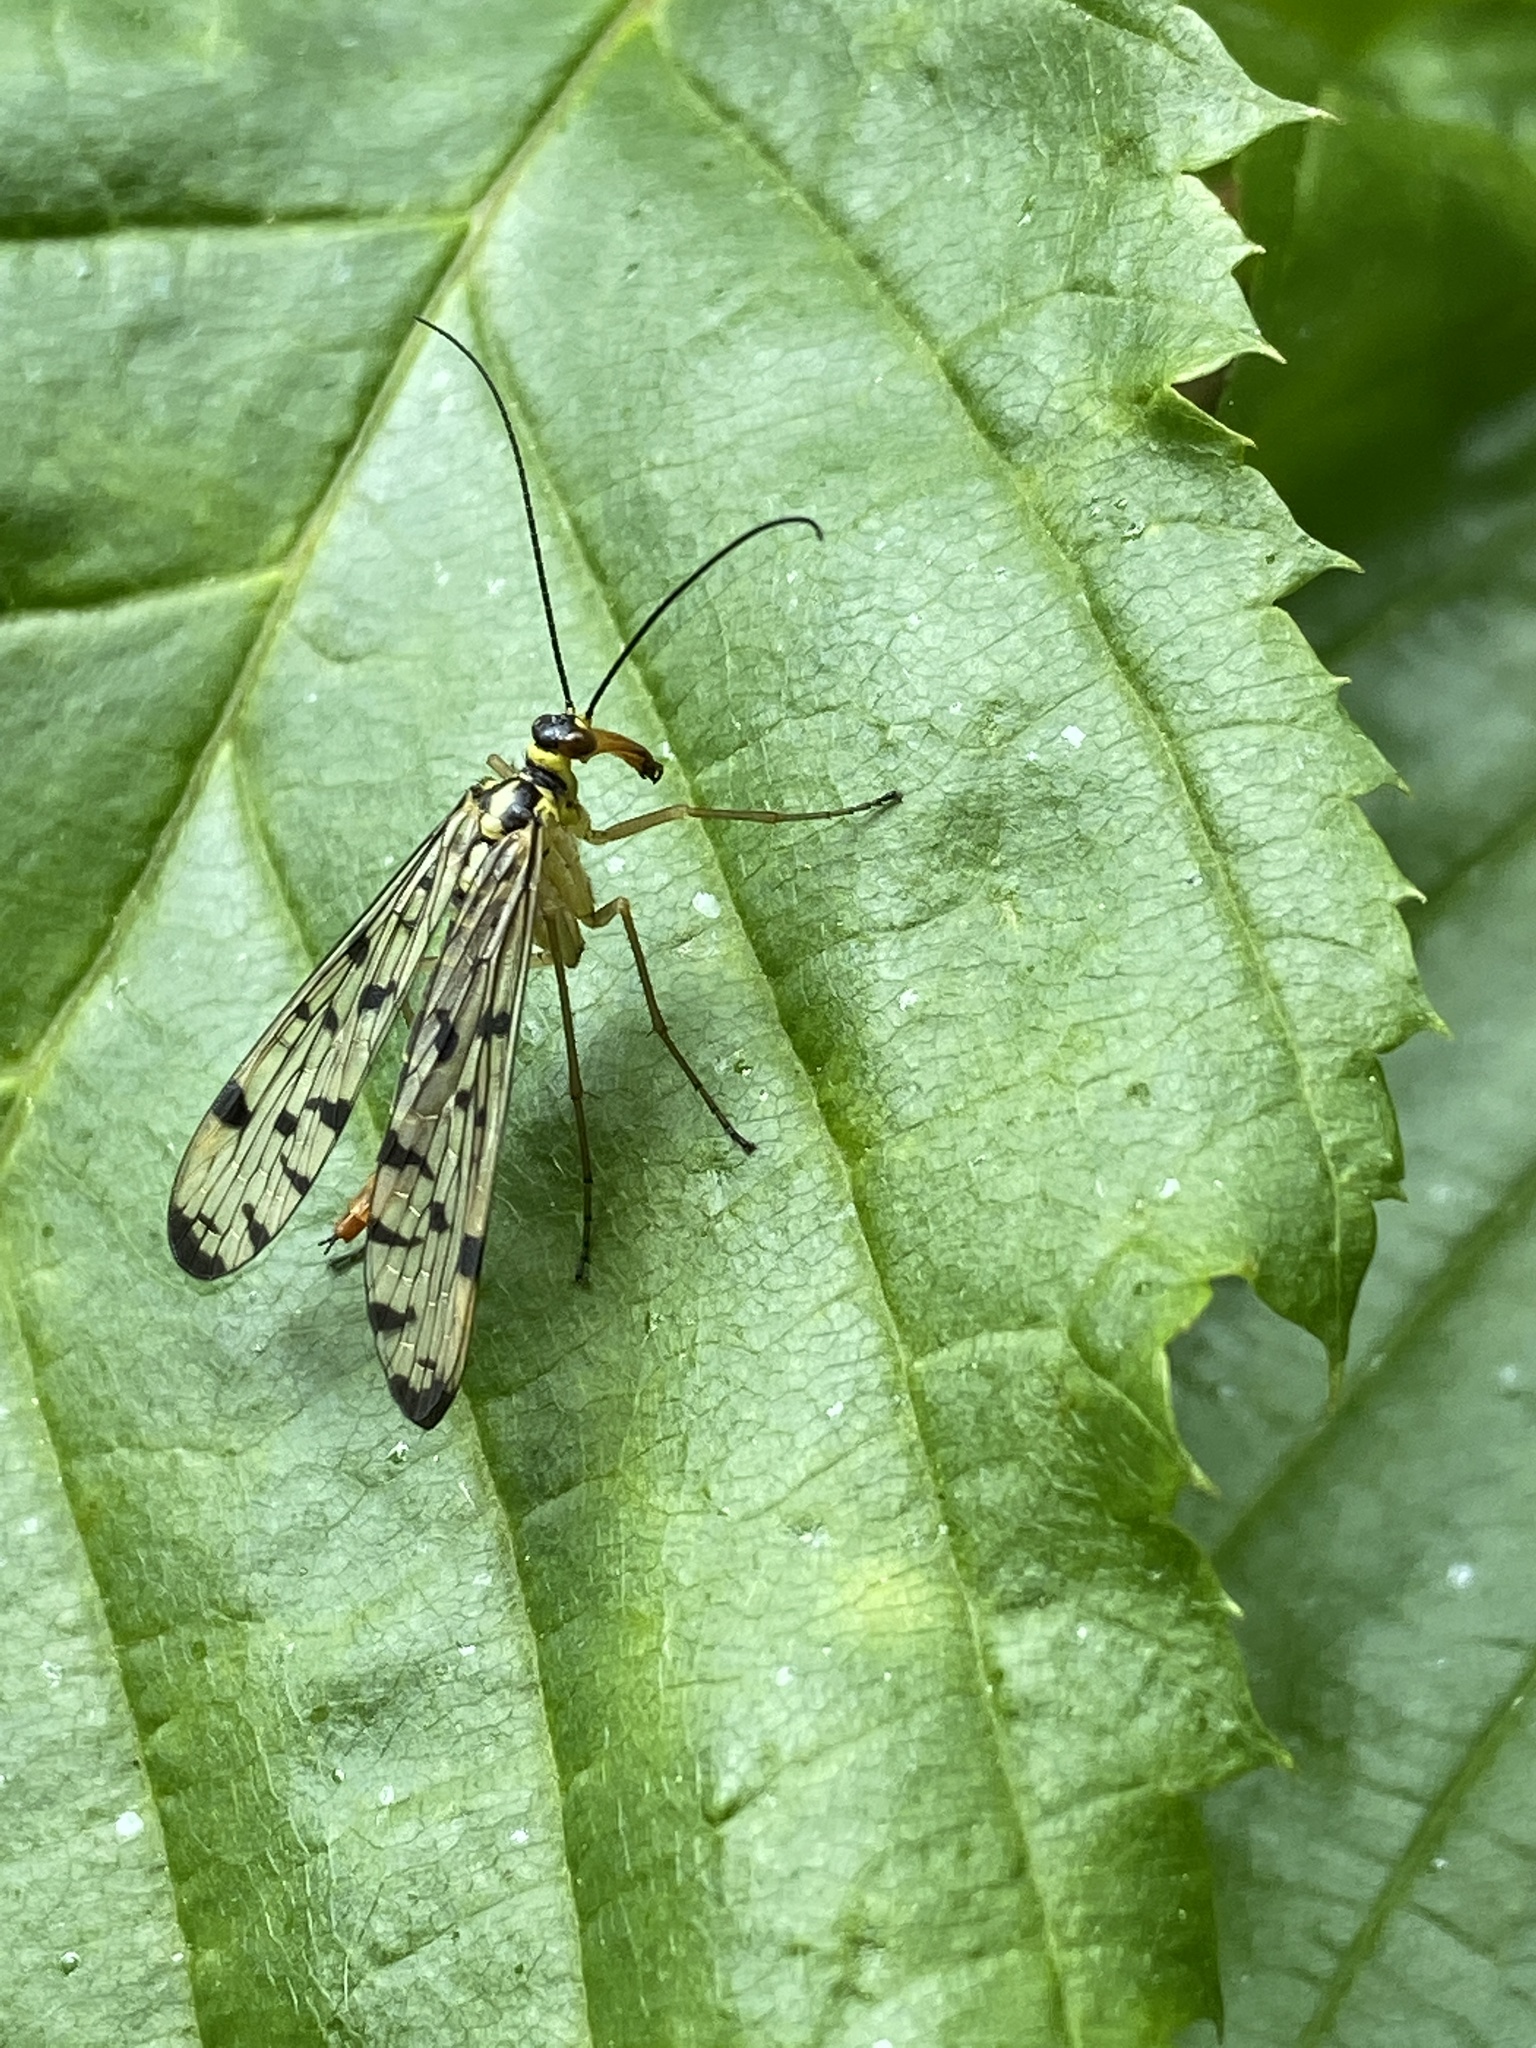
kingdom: Animalia
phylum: Arthropoda
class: Insecta
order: Mecoptera
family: Panorpidae
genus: Panorpa
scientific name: Panorpa germanica
